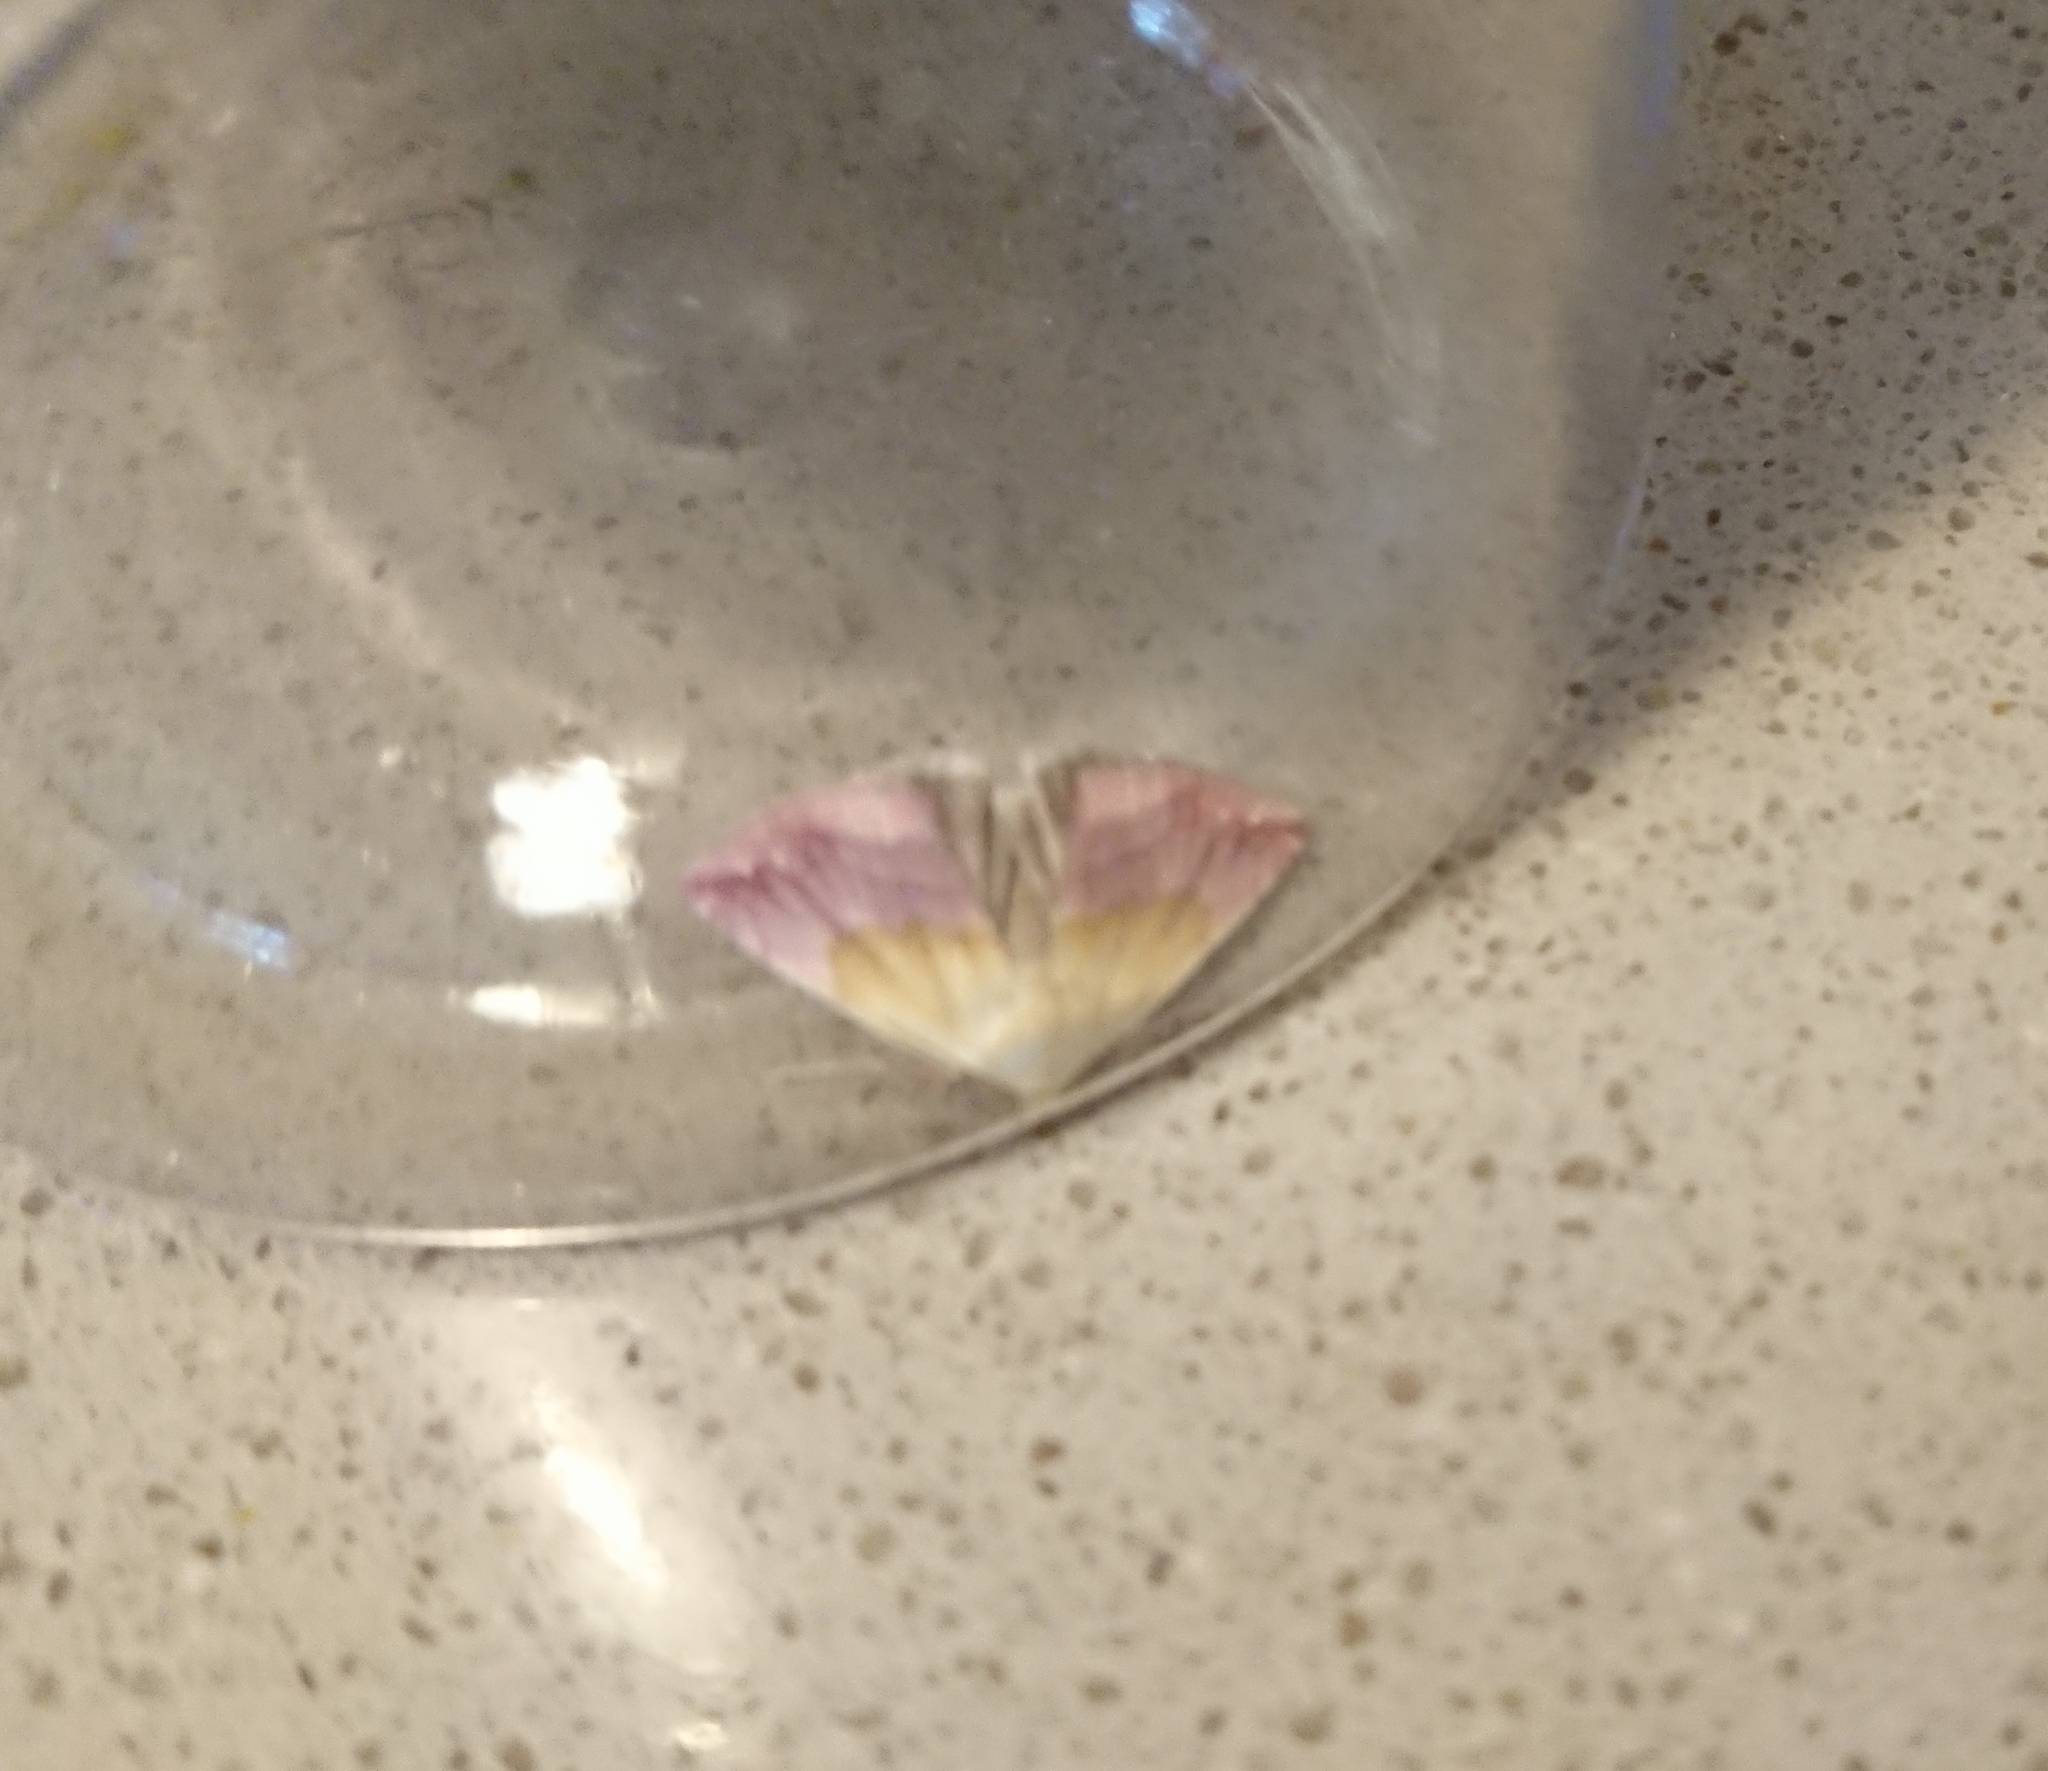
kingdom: Animalia
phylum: Arthropoda
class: Insecta
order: Lepidoptera
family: Noctuidae
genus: Eublemma
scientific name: Eublemma purpurina
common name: Beautiful marbled
